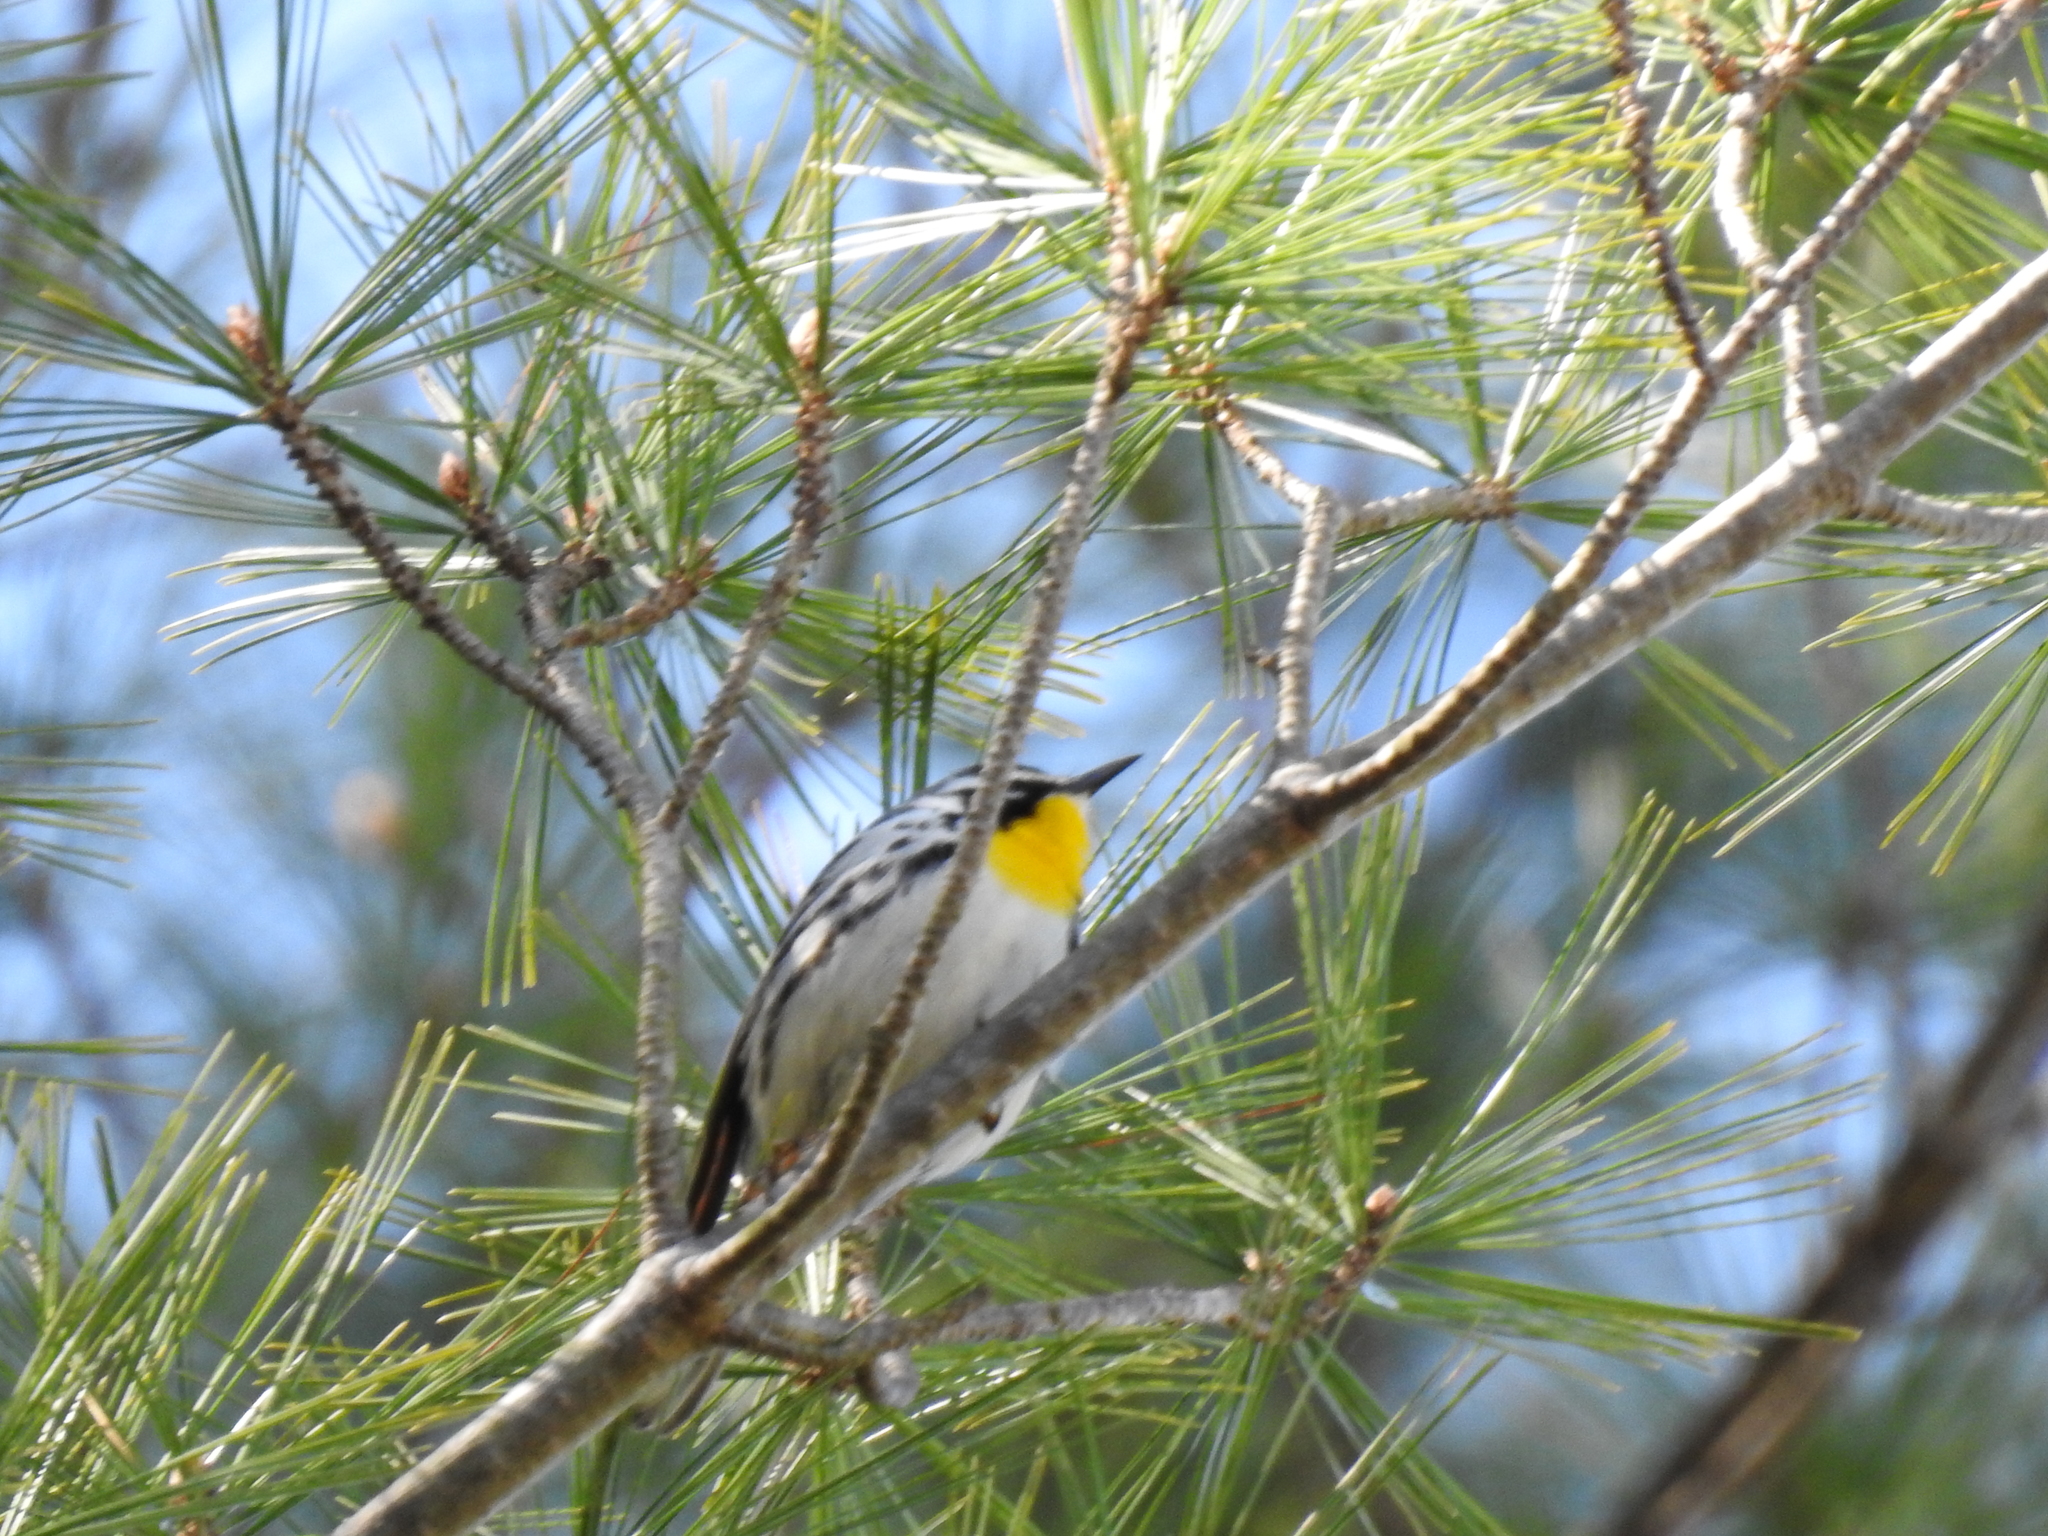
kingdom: Animalia
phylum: Chordata
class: Aves
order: Passeriformes
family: Parulidae
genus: Setophaga
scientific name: Setophaga dominica
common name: Yellow-throated warbler
